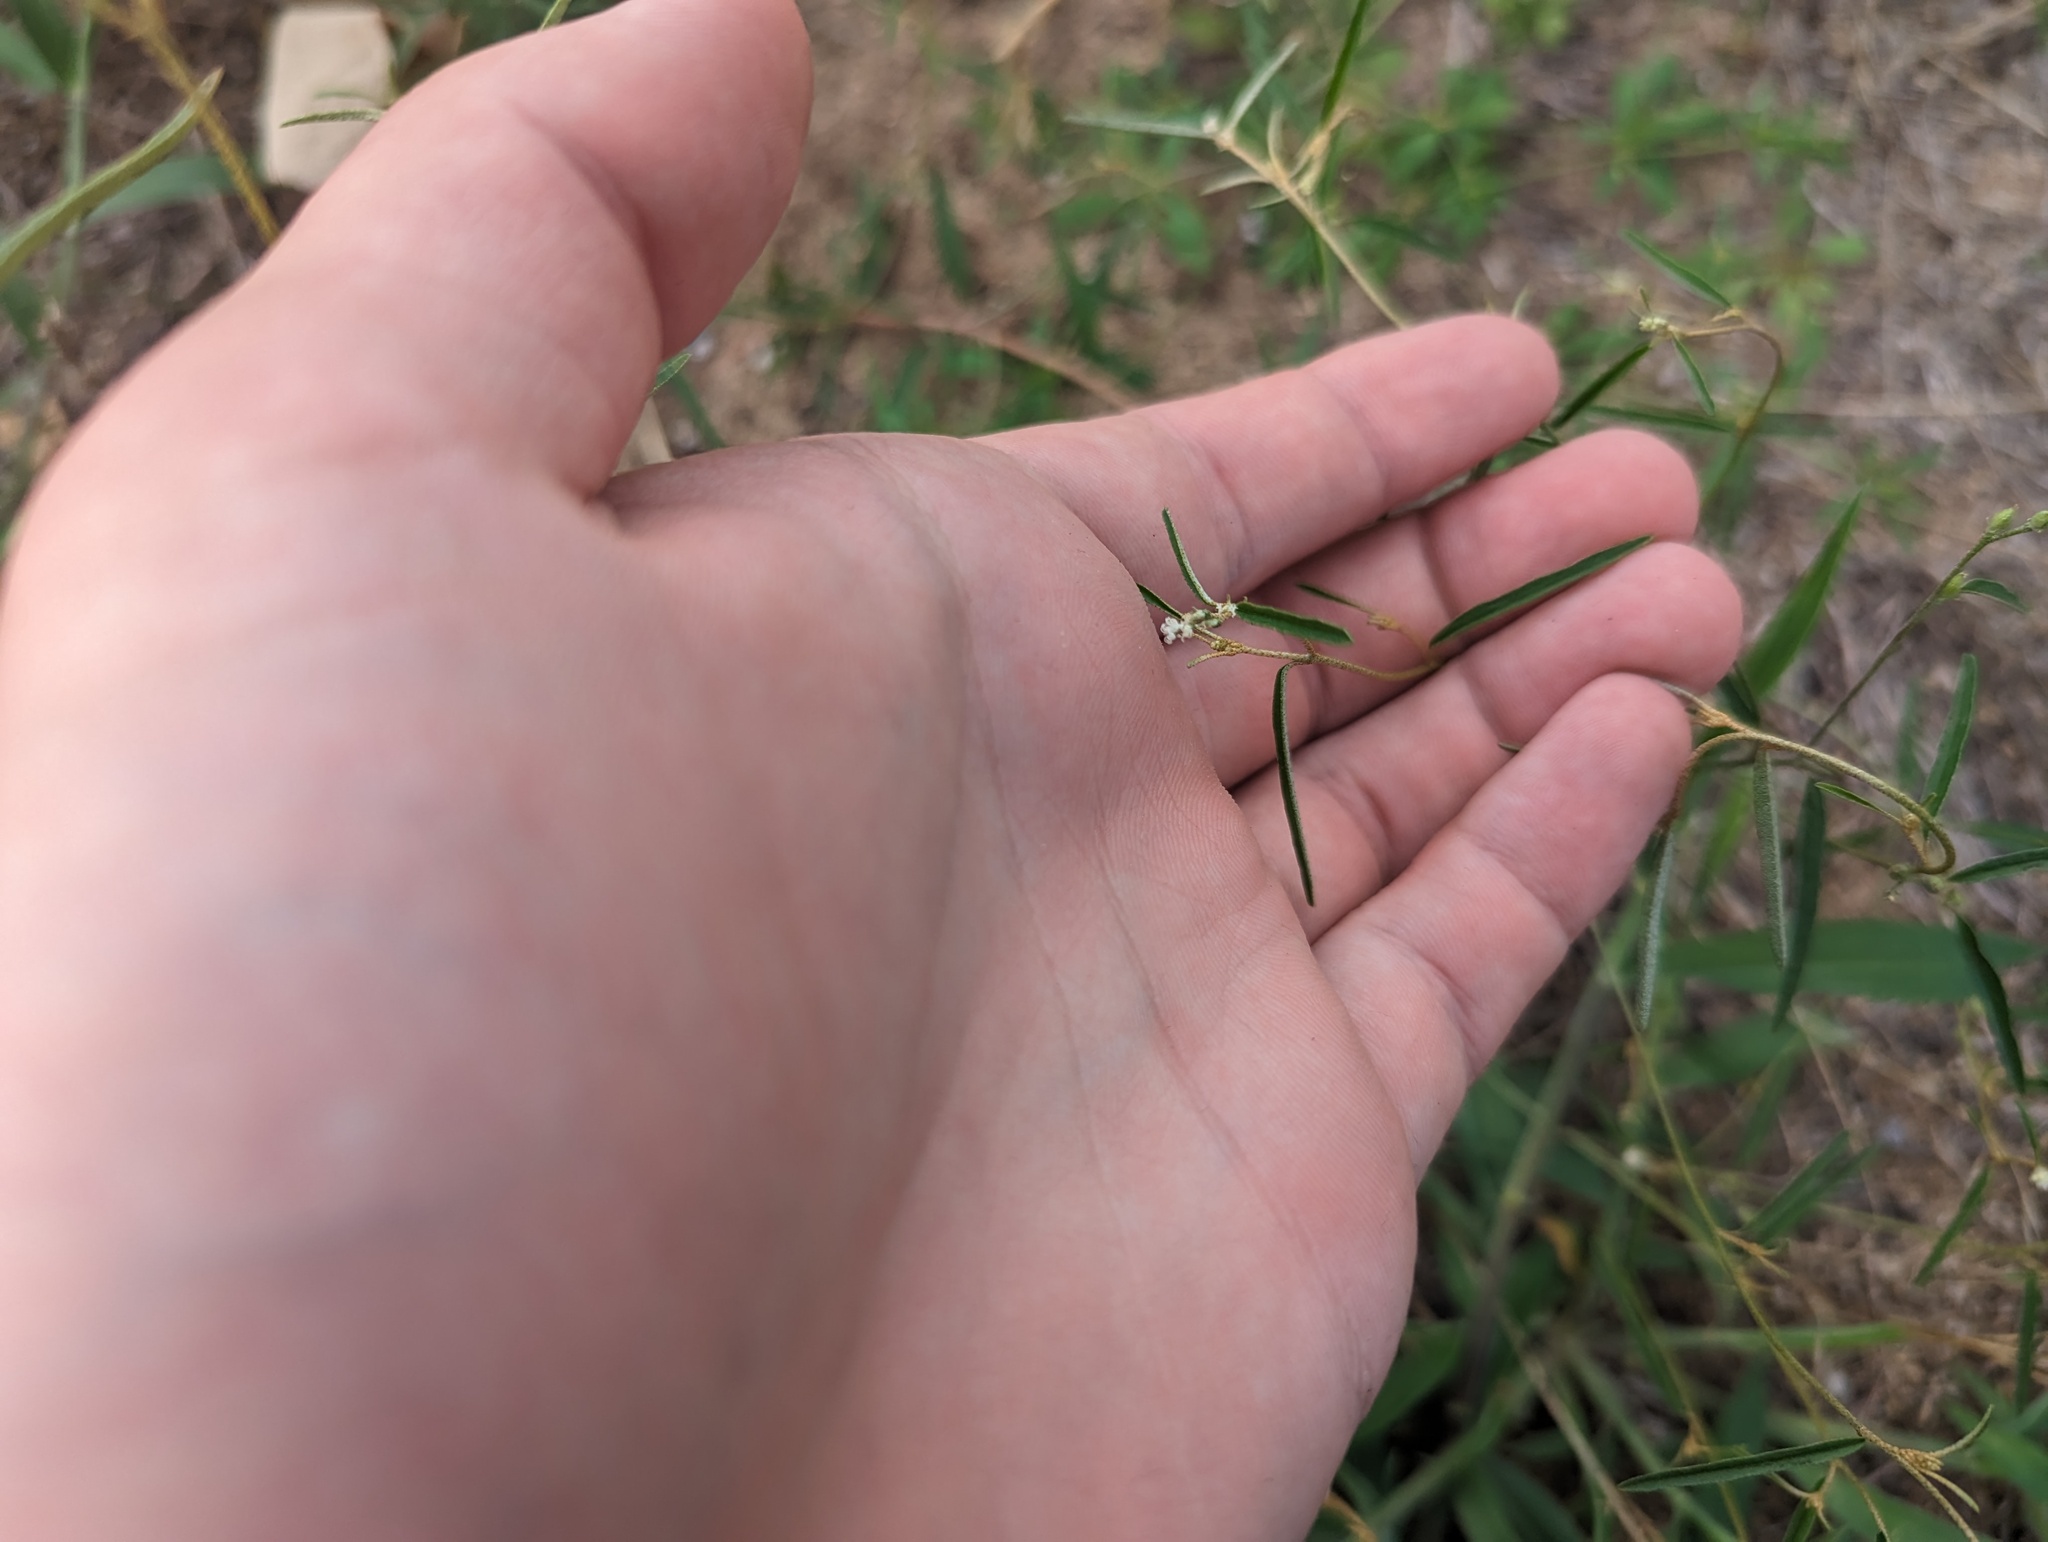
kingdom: Plantae
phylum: Tracheophyta
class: Magnoliopsida
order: Malpighiales
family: Euphorbiaceae
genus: Croton
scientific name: Croton michauxii
